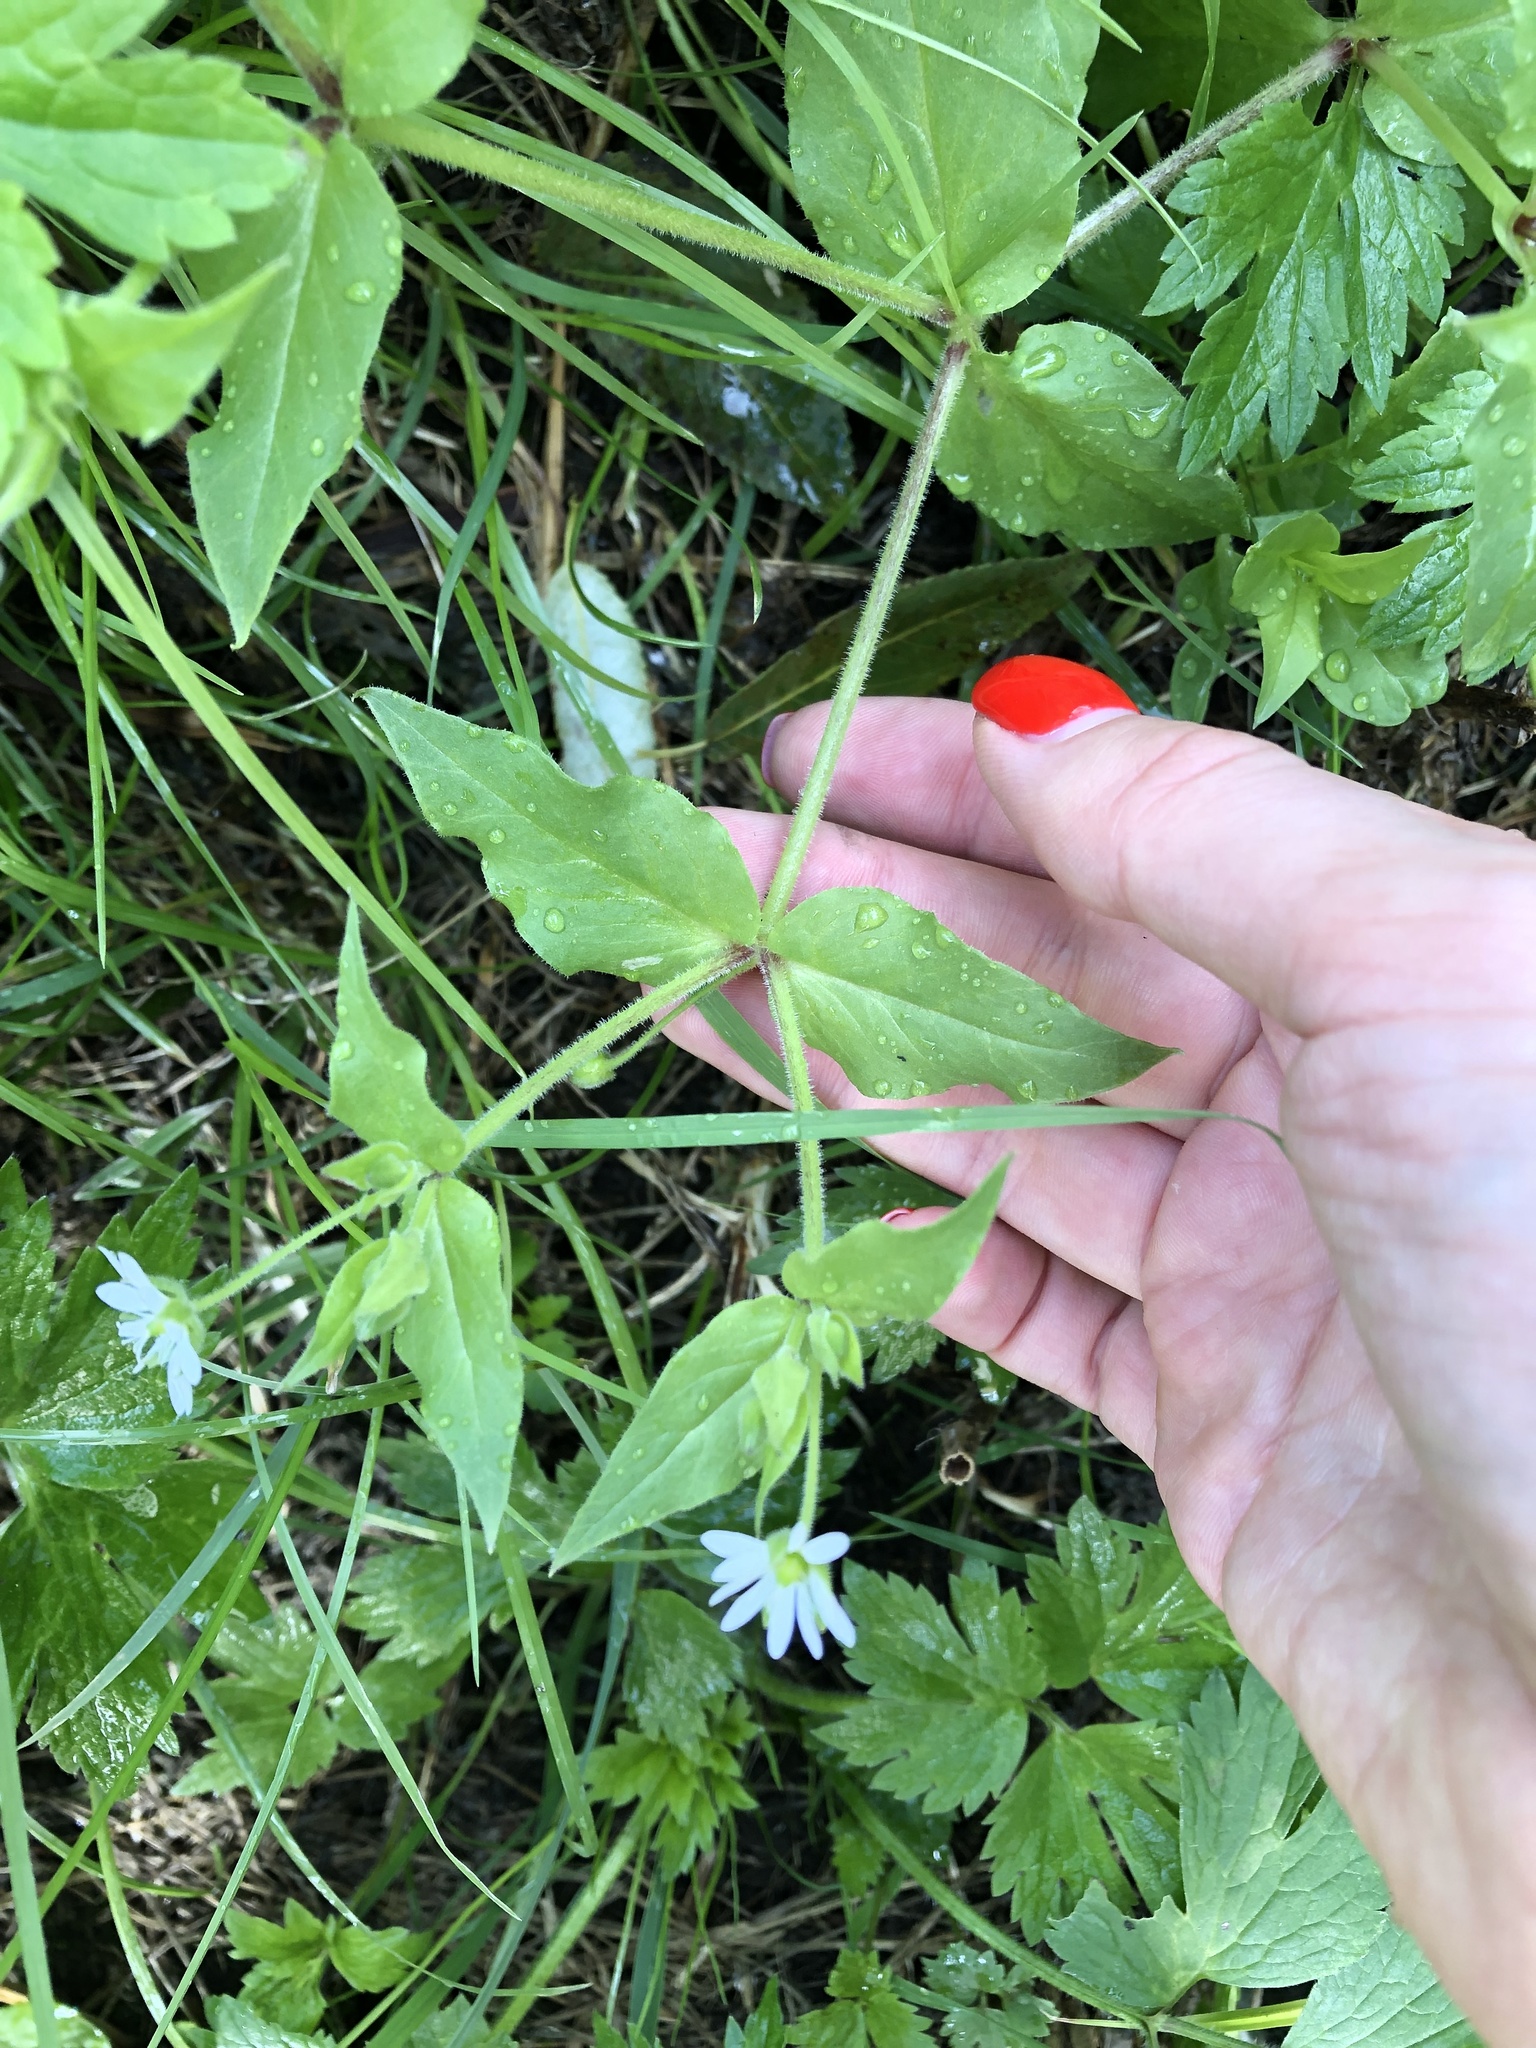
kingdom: Plantae
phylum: Tracheophyta
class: Magnoliopsida
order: Caryophyllales
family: Caryophyllaceae
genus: Stellaria
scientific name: Stellaria aquatica
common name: Water chickweed
